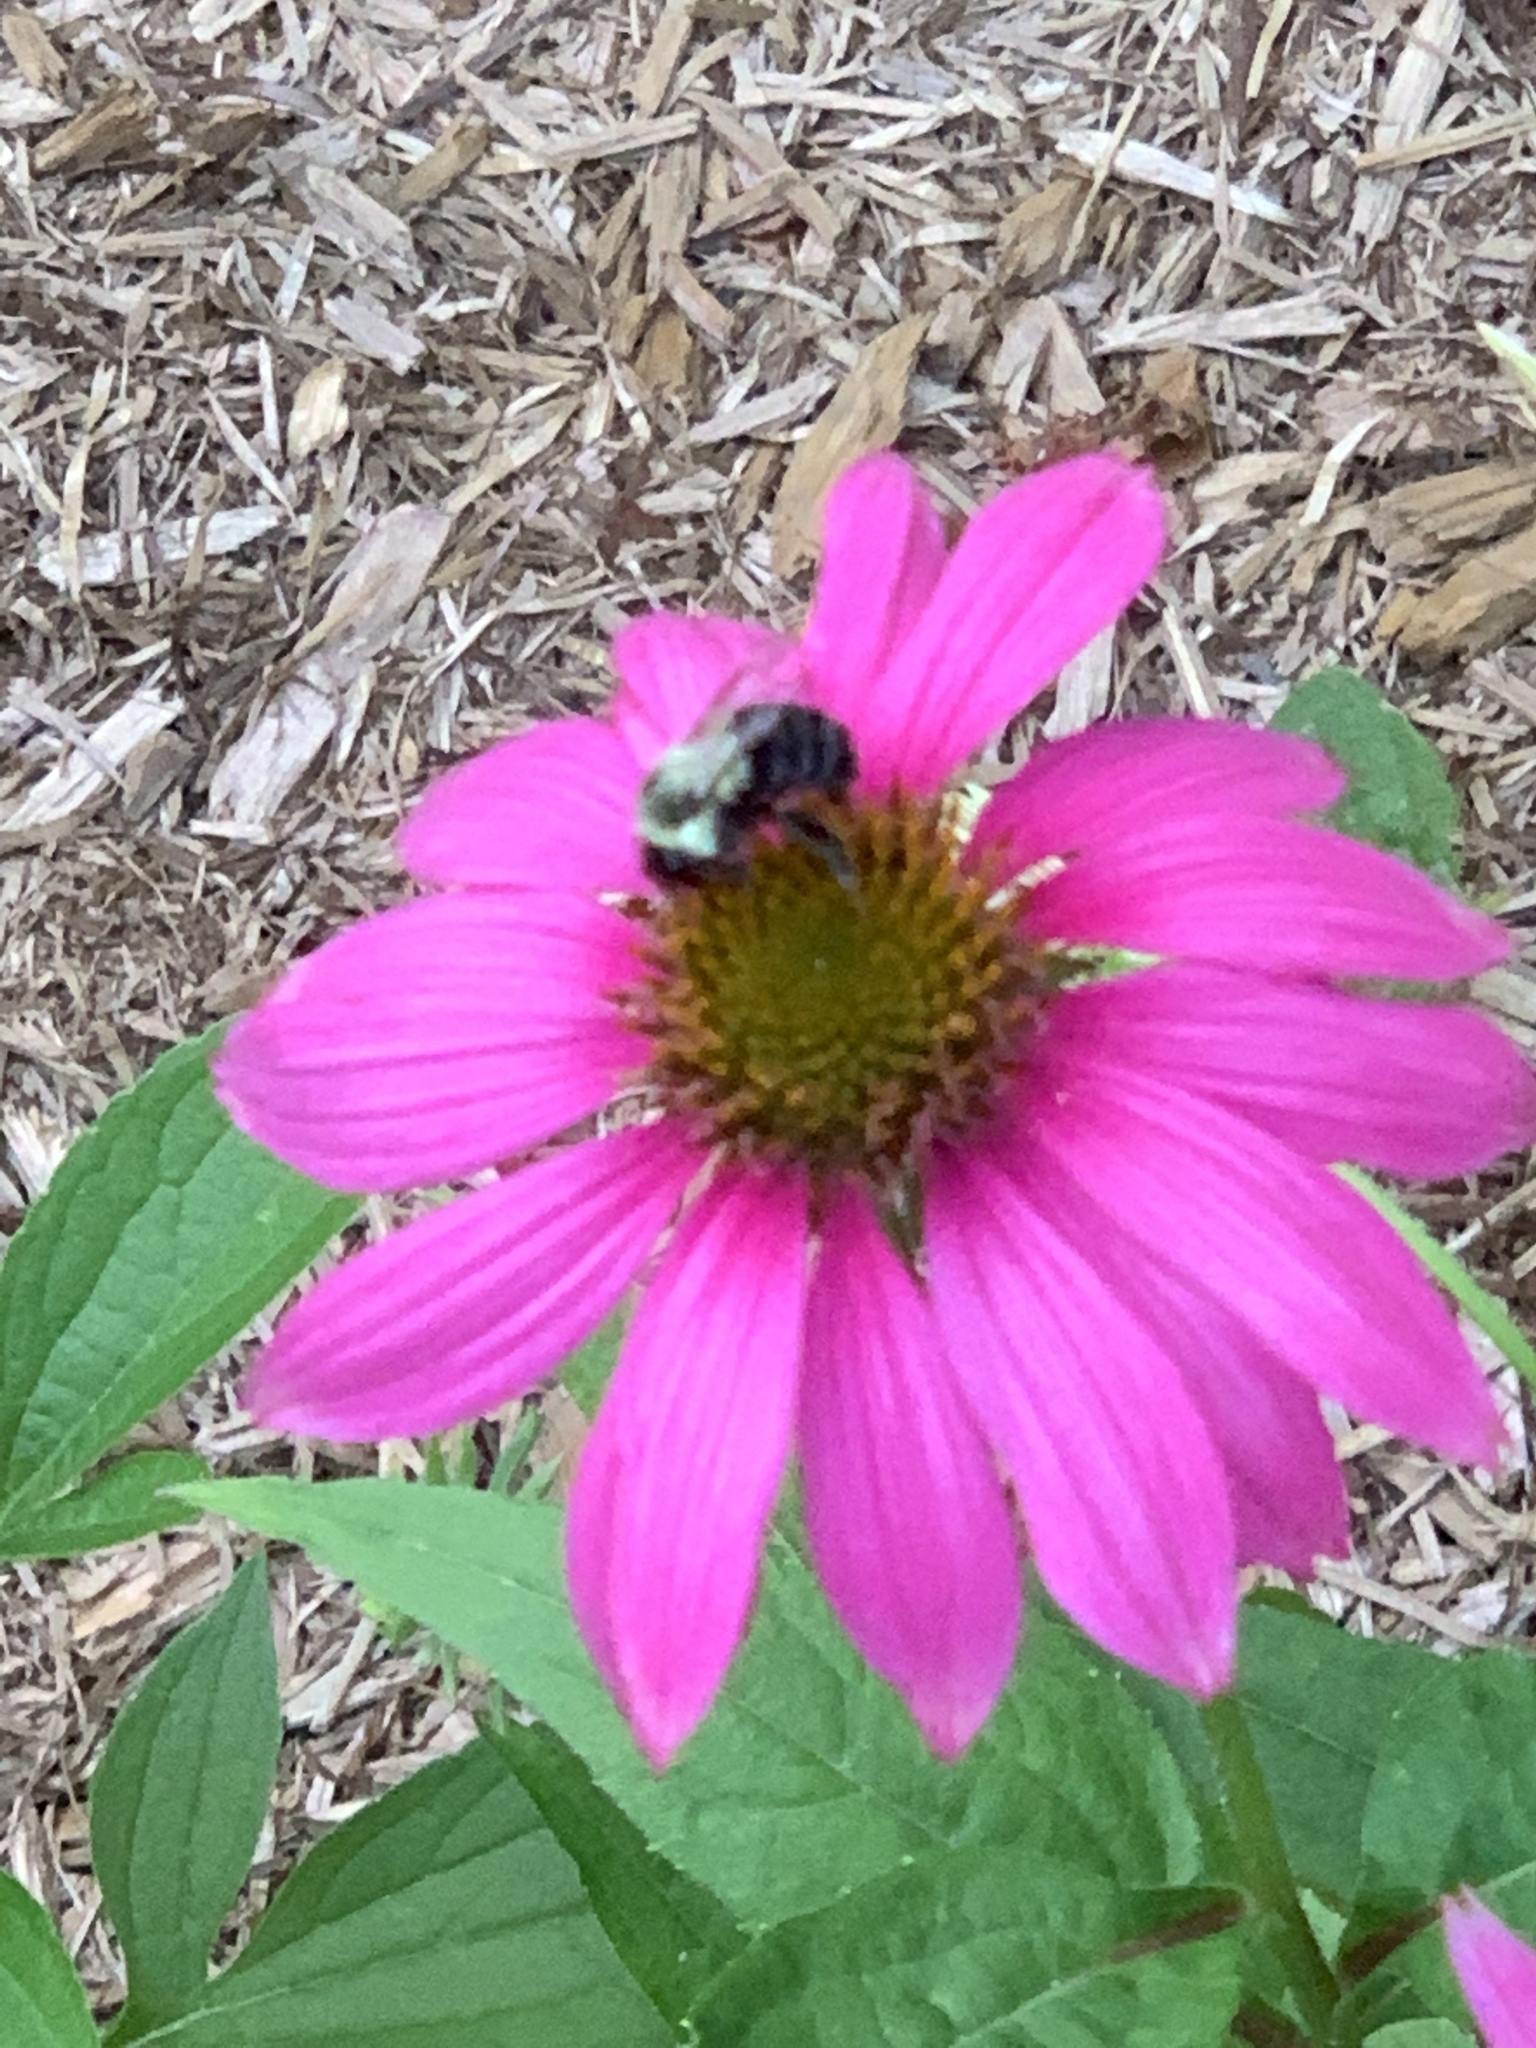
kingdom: Plantae
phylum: Tracheophyta
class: Magnoliopsida
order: Asterales
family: Asteraceae
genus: Echinacea
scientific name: Echinacea purpurea
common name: Broad-leaved purple coneflower
